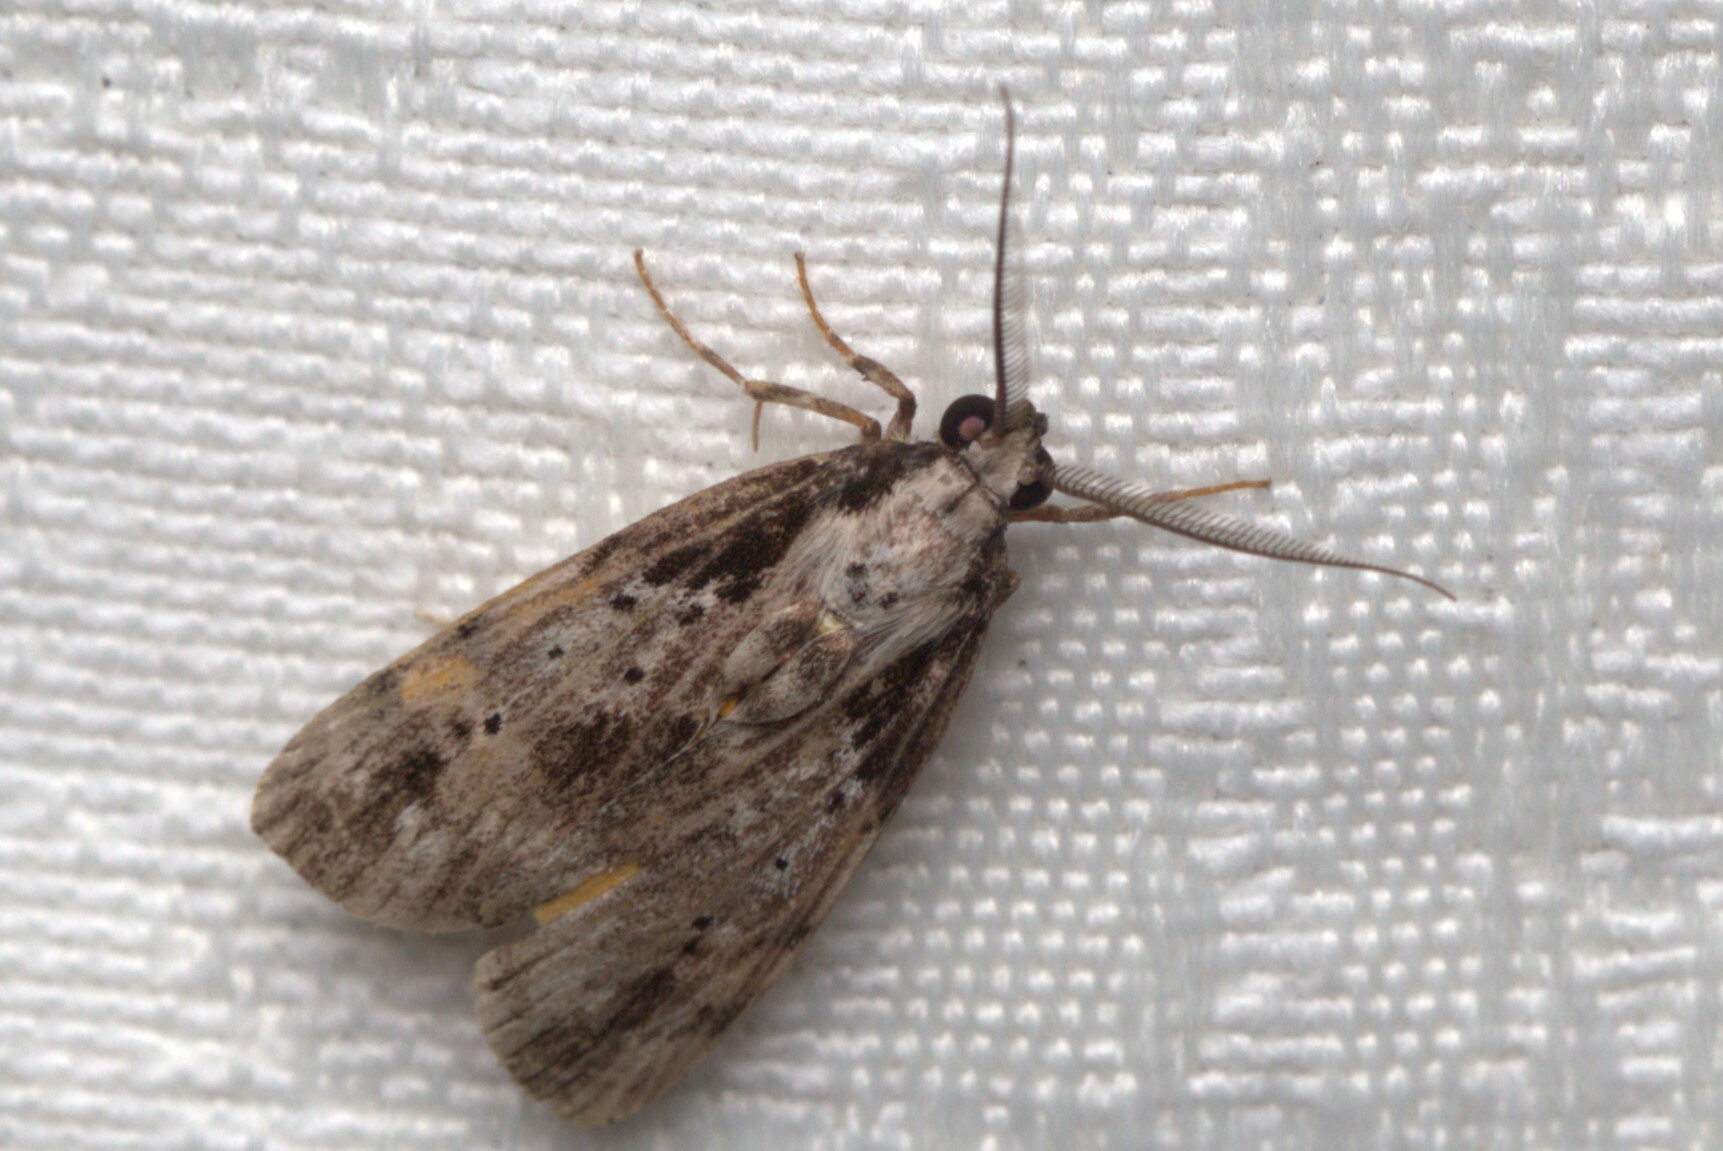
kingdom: Animalia
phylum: Arthropoda
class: Insecta
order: Lepidoptera
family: Erebidae
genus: Digama
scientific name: Digama Sommeria marmorea
